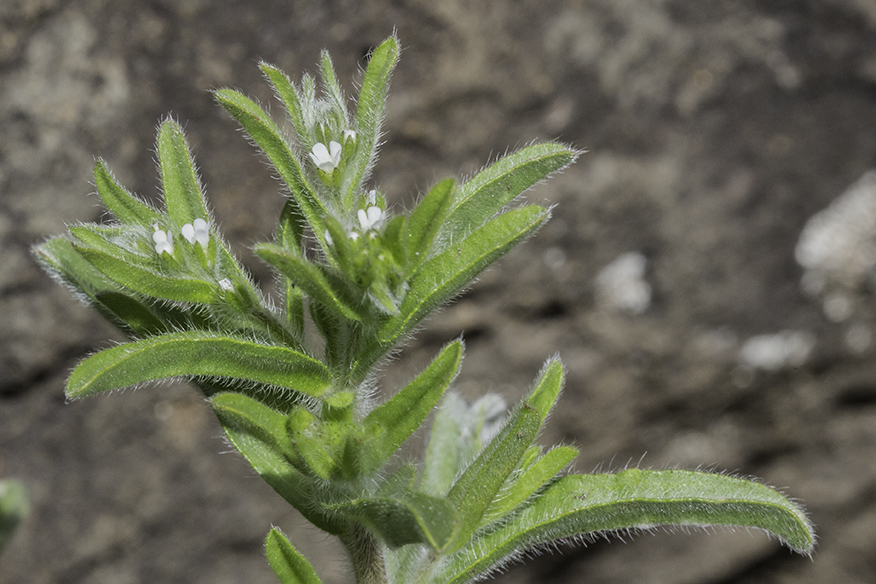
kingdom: Plantae
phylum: Tracheophyta
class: Magnoliopsida
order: Boraginales
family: Boraginaceae
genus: Lappula
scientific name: Lappula occidentalis
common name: Western stickseed
